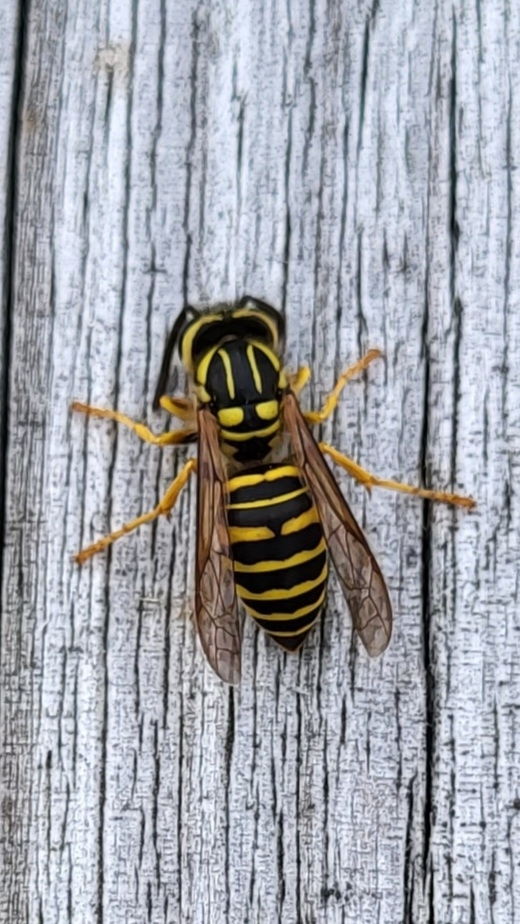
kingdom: Animalia
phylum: Arthropoda
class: Insecta
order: Hymenoptera
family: Vespidae
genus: Vespula
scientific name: Vespula squamosa
